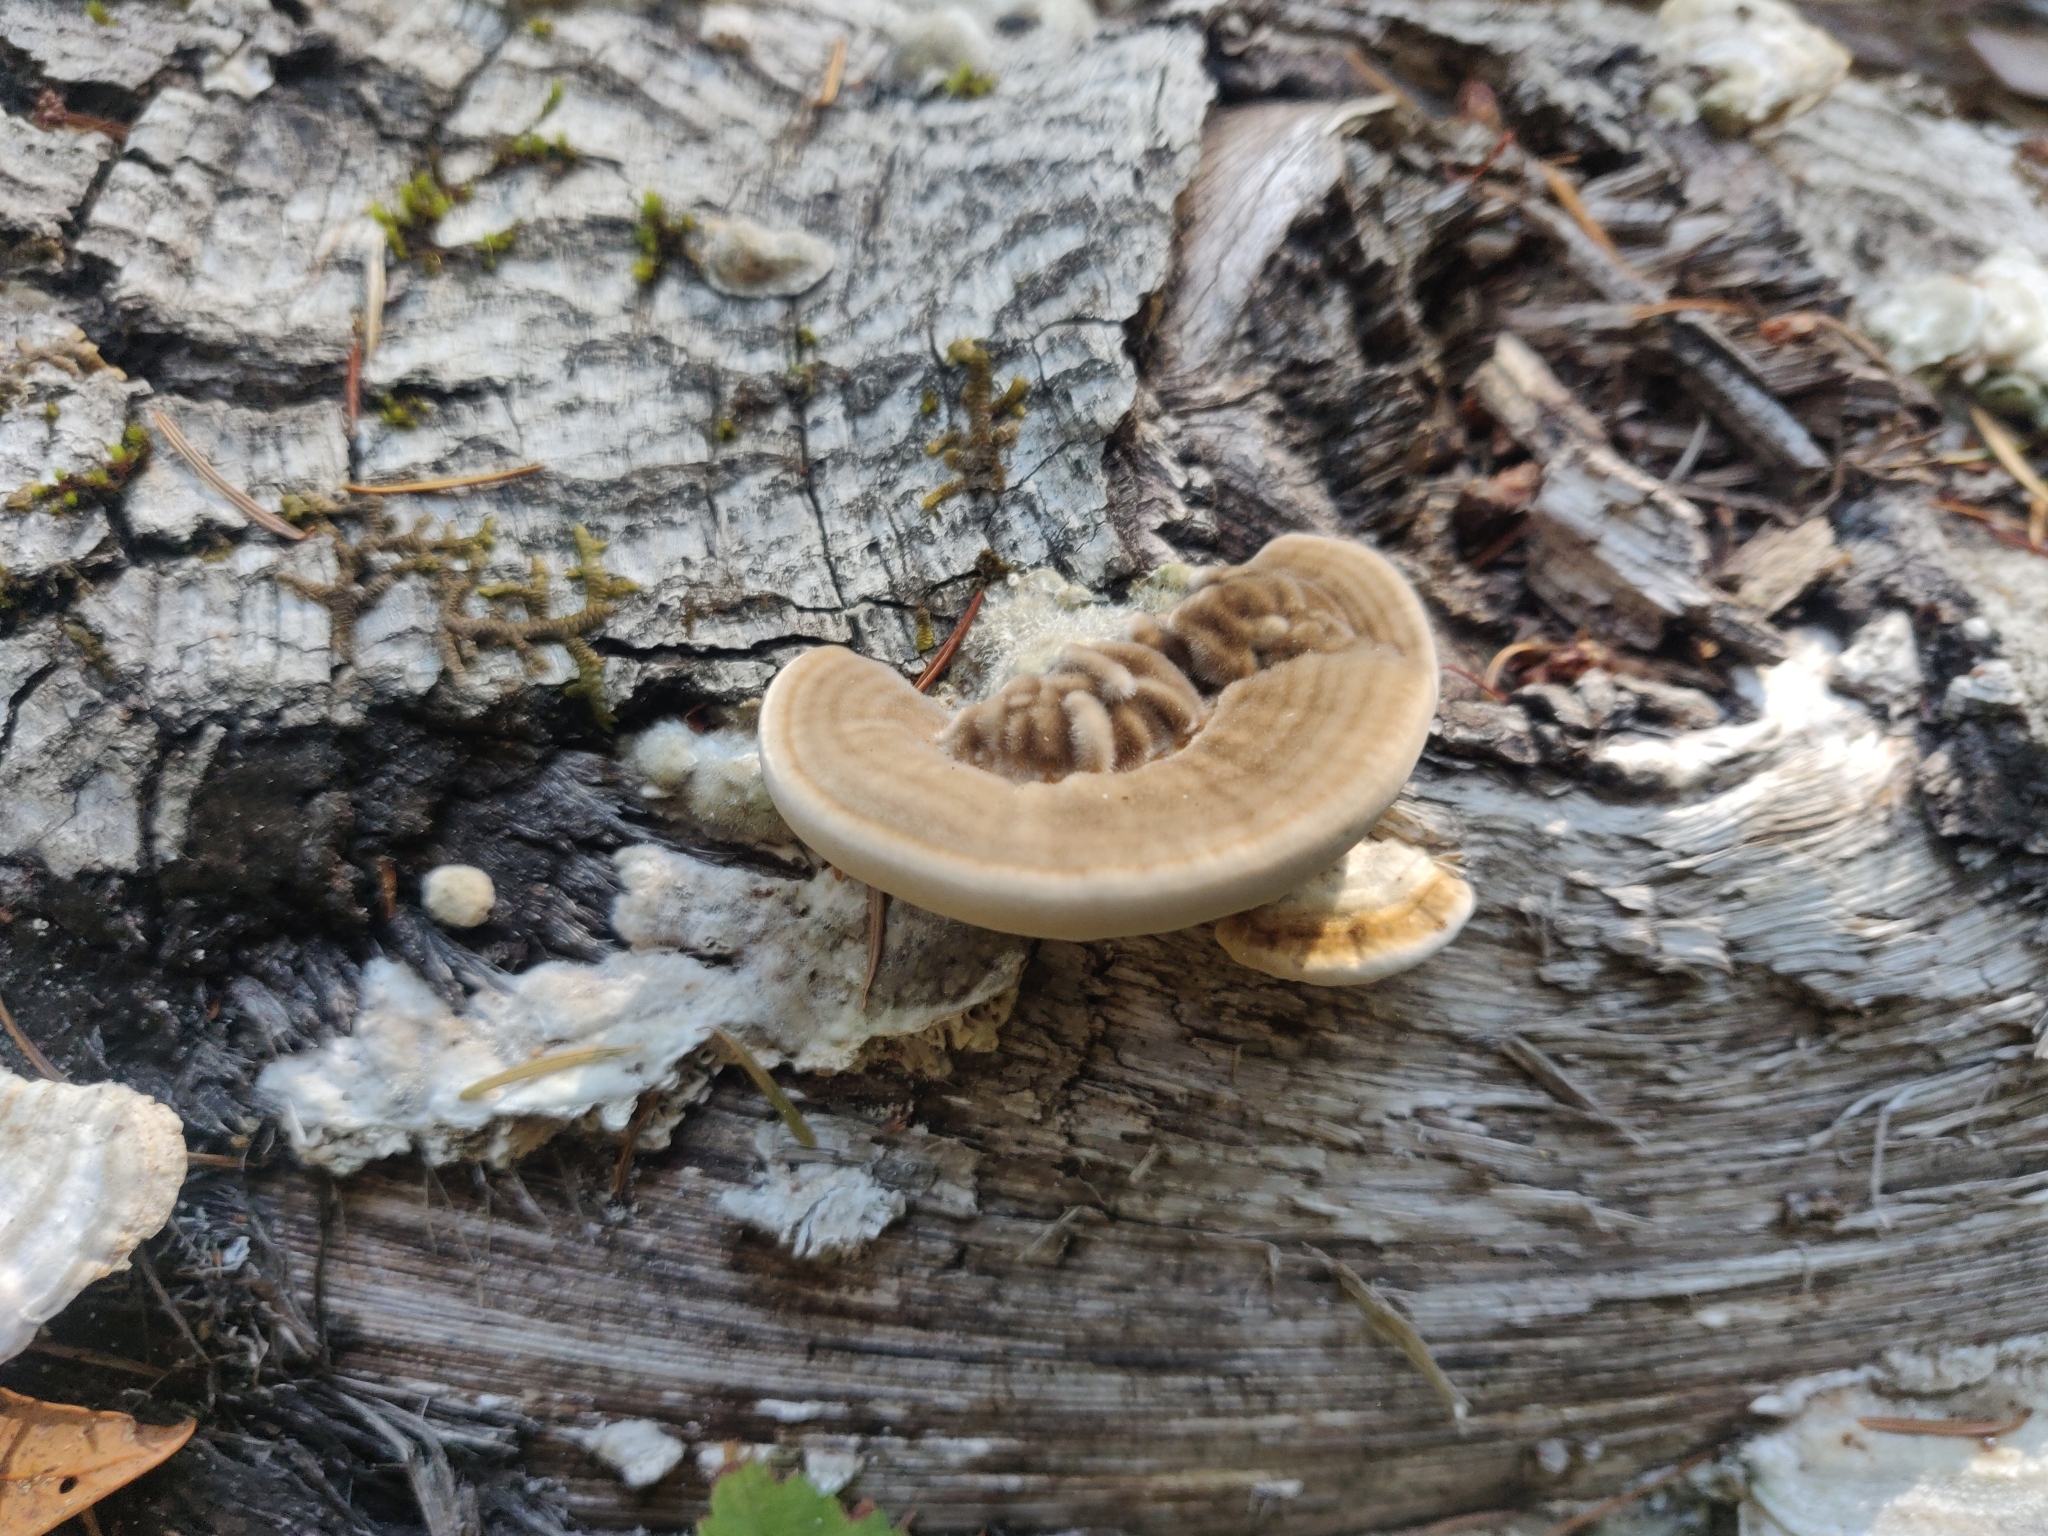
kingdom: Fungi
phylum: Basidiomycota
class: Agaricomycetes
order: Polyporales
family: Polyporaceae
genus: Lenzites
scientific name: Lenzites betulinus
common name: Birch mazegill
